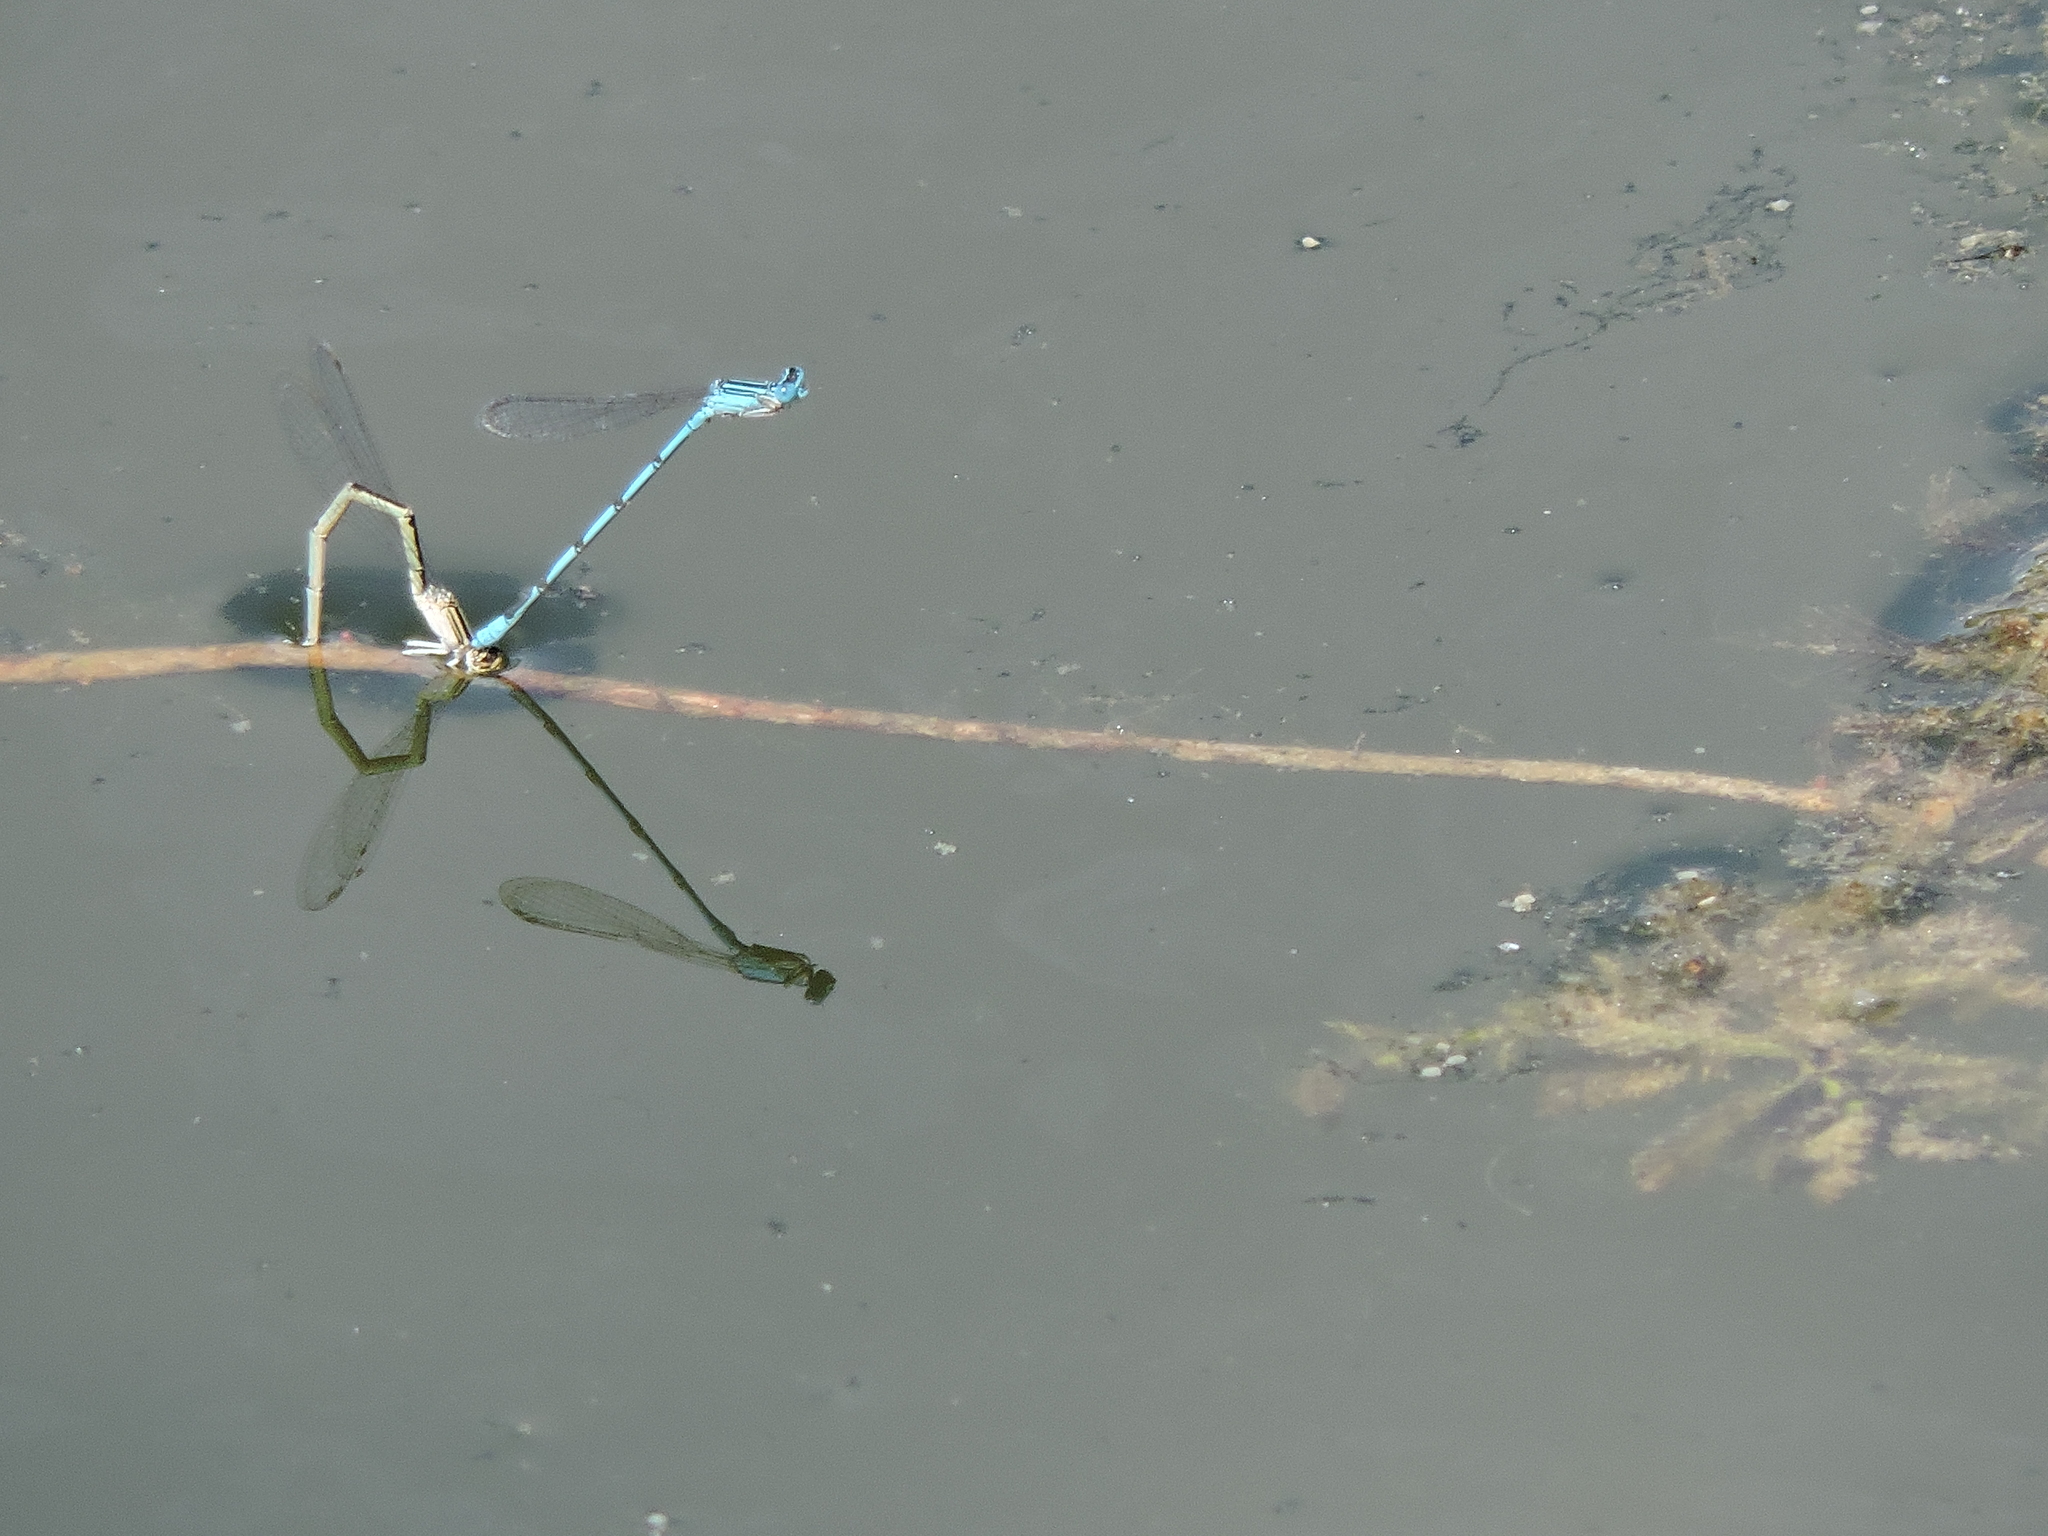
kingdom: Animalia
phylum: Arthropoda
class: Insecta
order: Odonata
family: Coenagrionidae
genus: Enallagma
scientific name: Enallagma basidens
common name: Double-striped bluet
